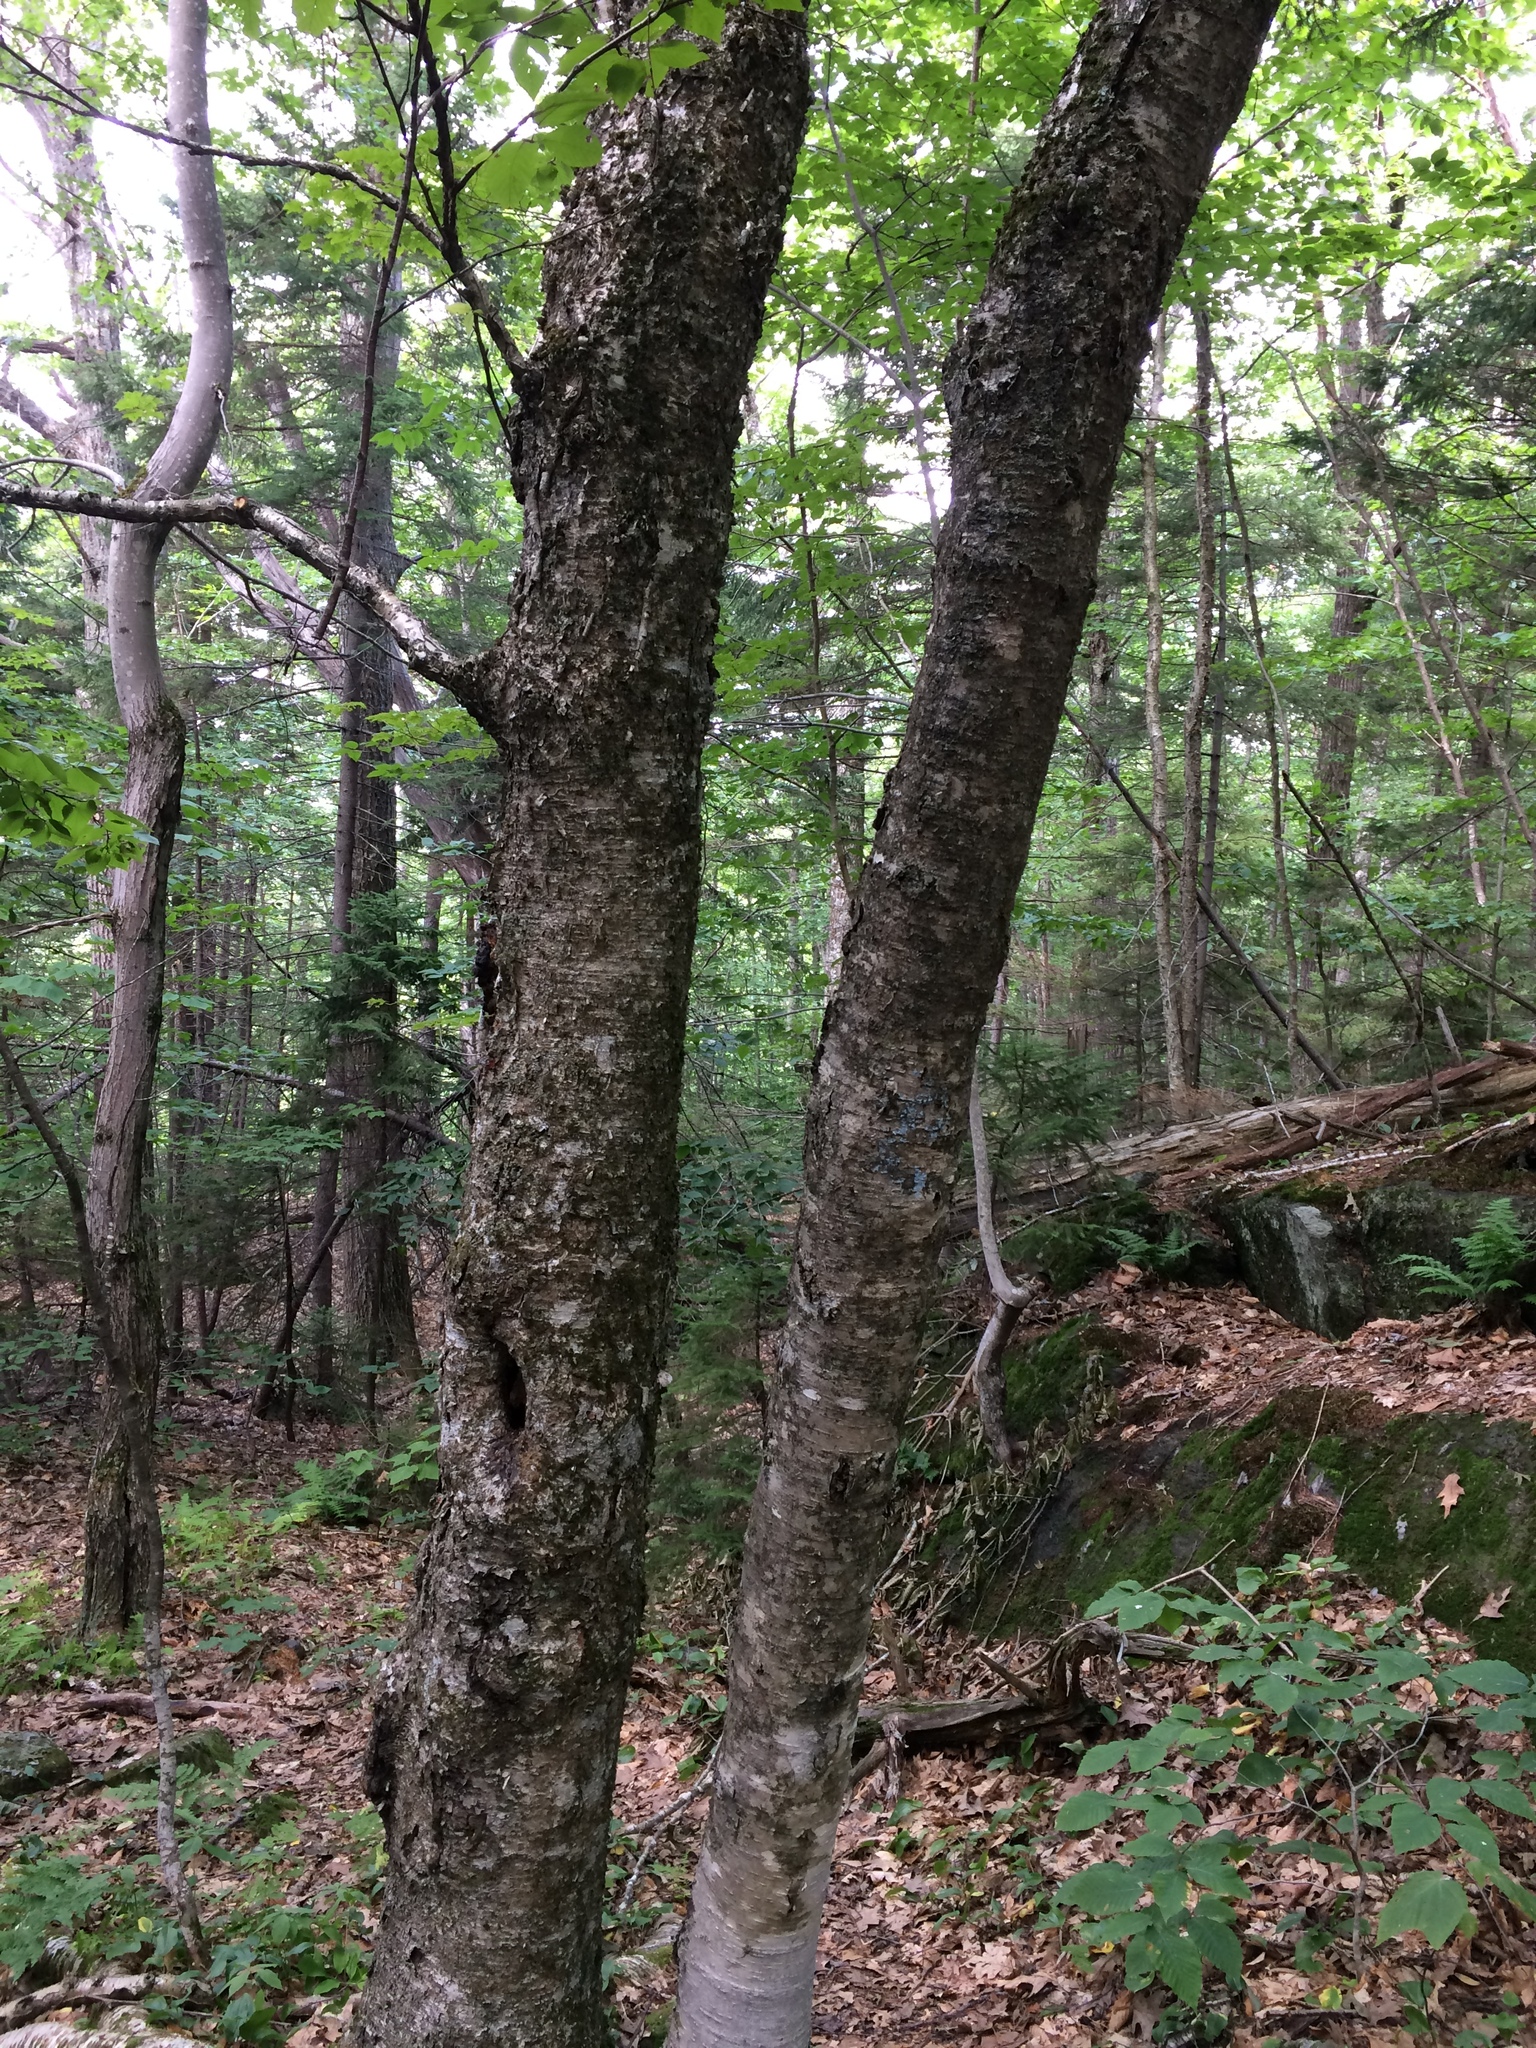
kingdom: Plantae
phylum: Tracheophyta
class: Magnoliopsida
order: Fagales
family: Betulaceae
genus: Betula
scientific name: Betula alleghaniensis
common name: Yellow birch
